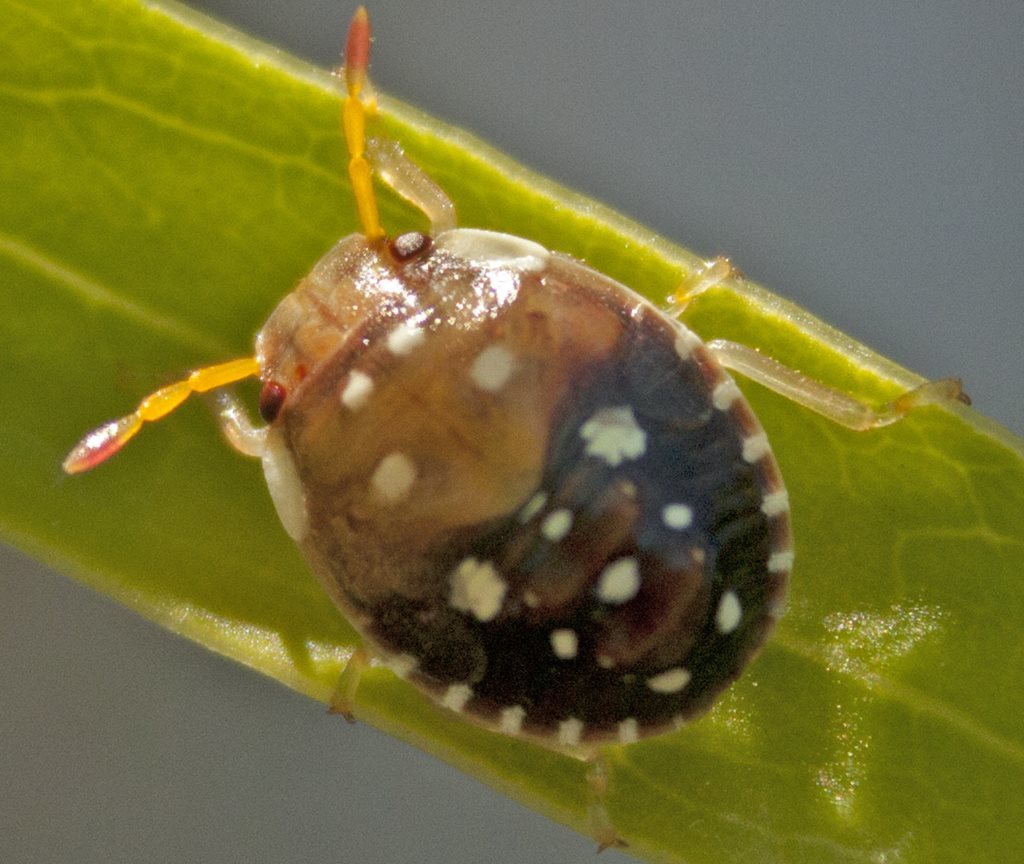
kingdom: Animalia
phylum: Arthropoda
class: Insecta
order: Hemiptera
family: Pentatomidae
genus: Pseudapines
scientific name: Pseudapines
